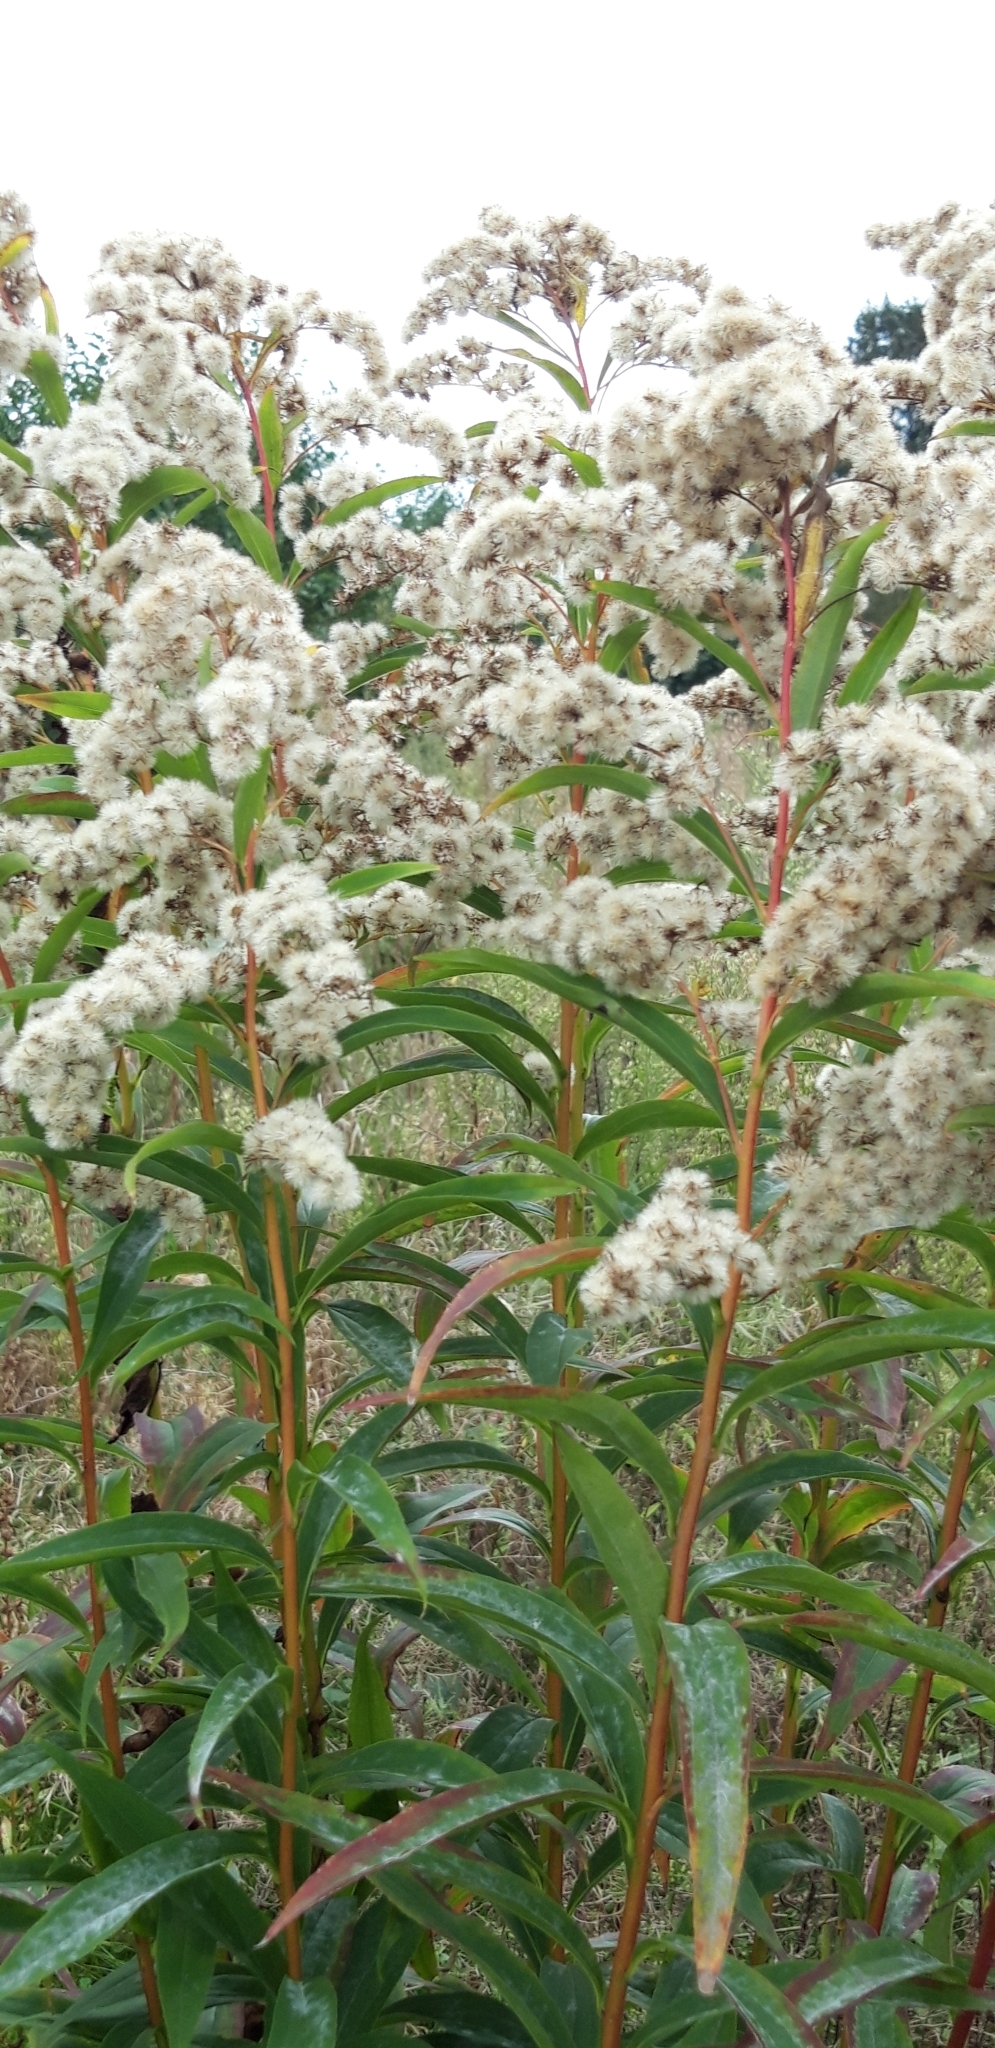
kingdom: Plantae
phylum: Tracheophyta
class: Magnoliopsida
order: Asterales
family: Asteraceae
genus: Solidago
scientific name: Solidago gigantea
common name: Giant goldenrod
